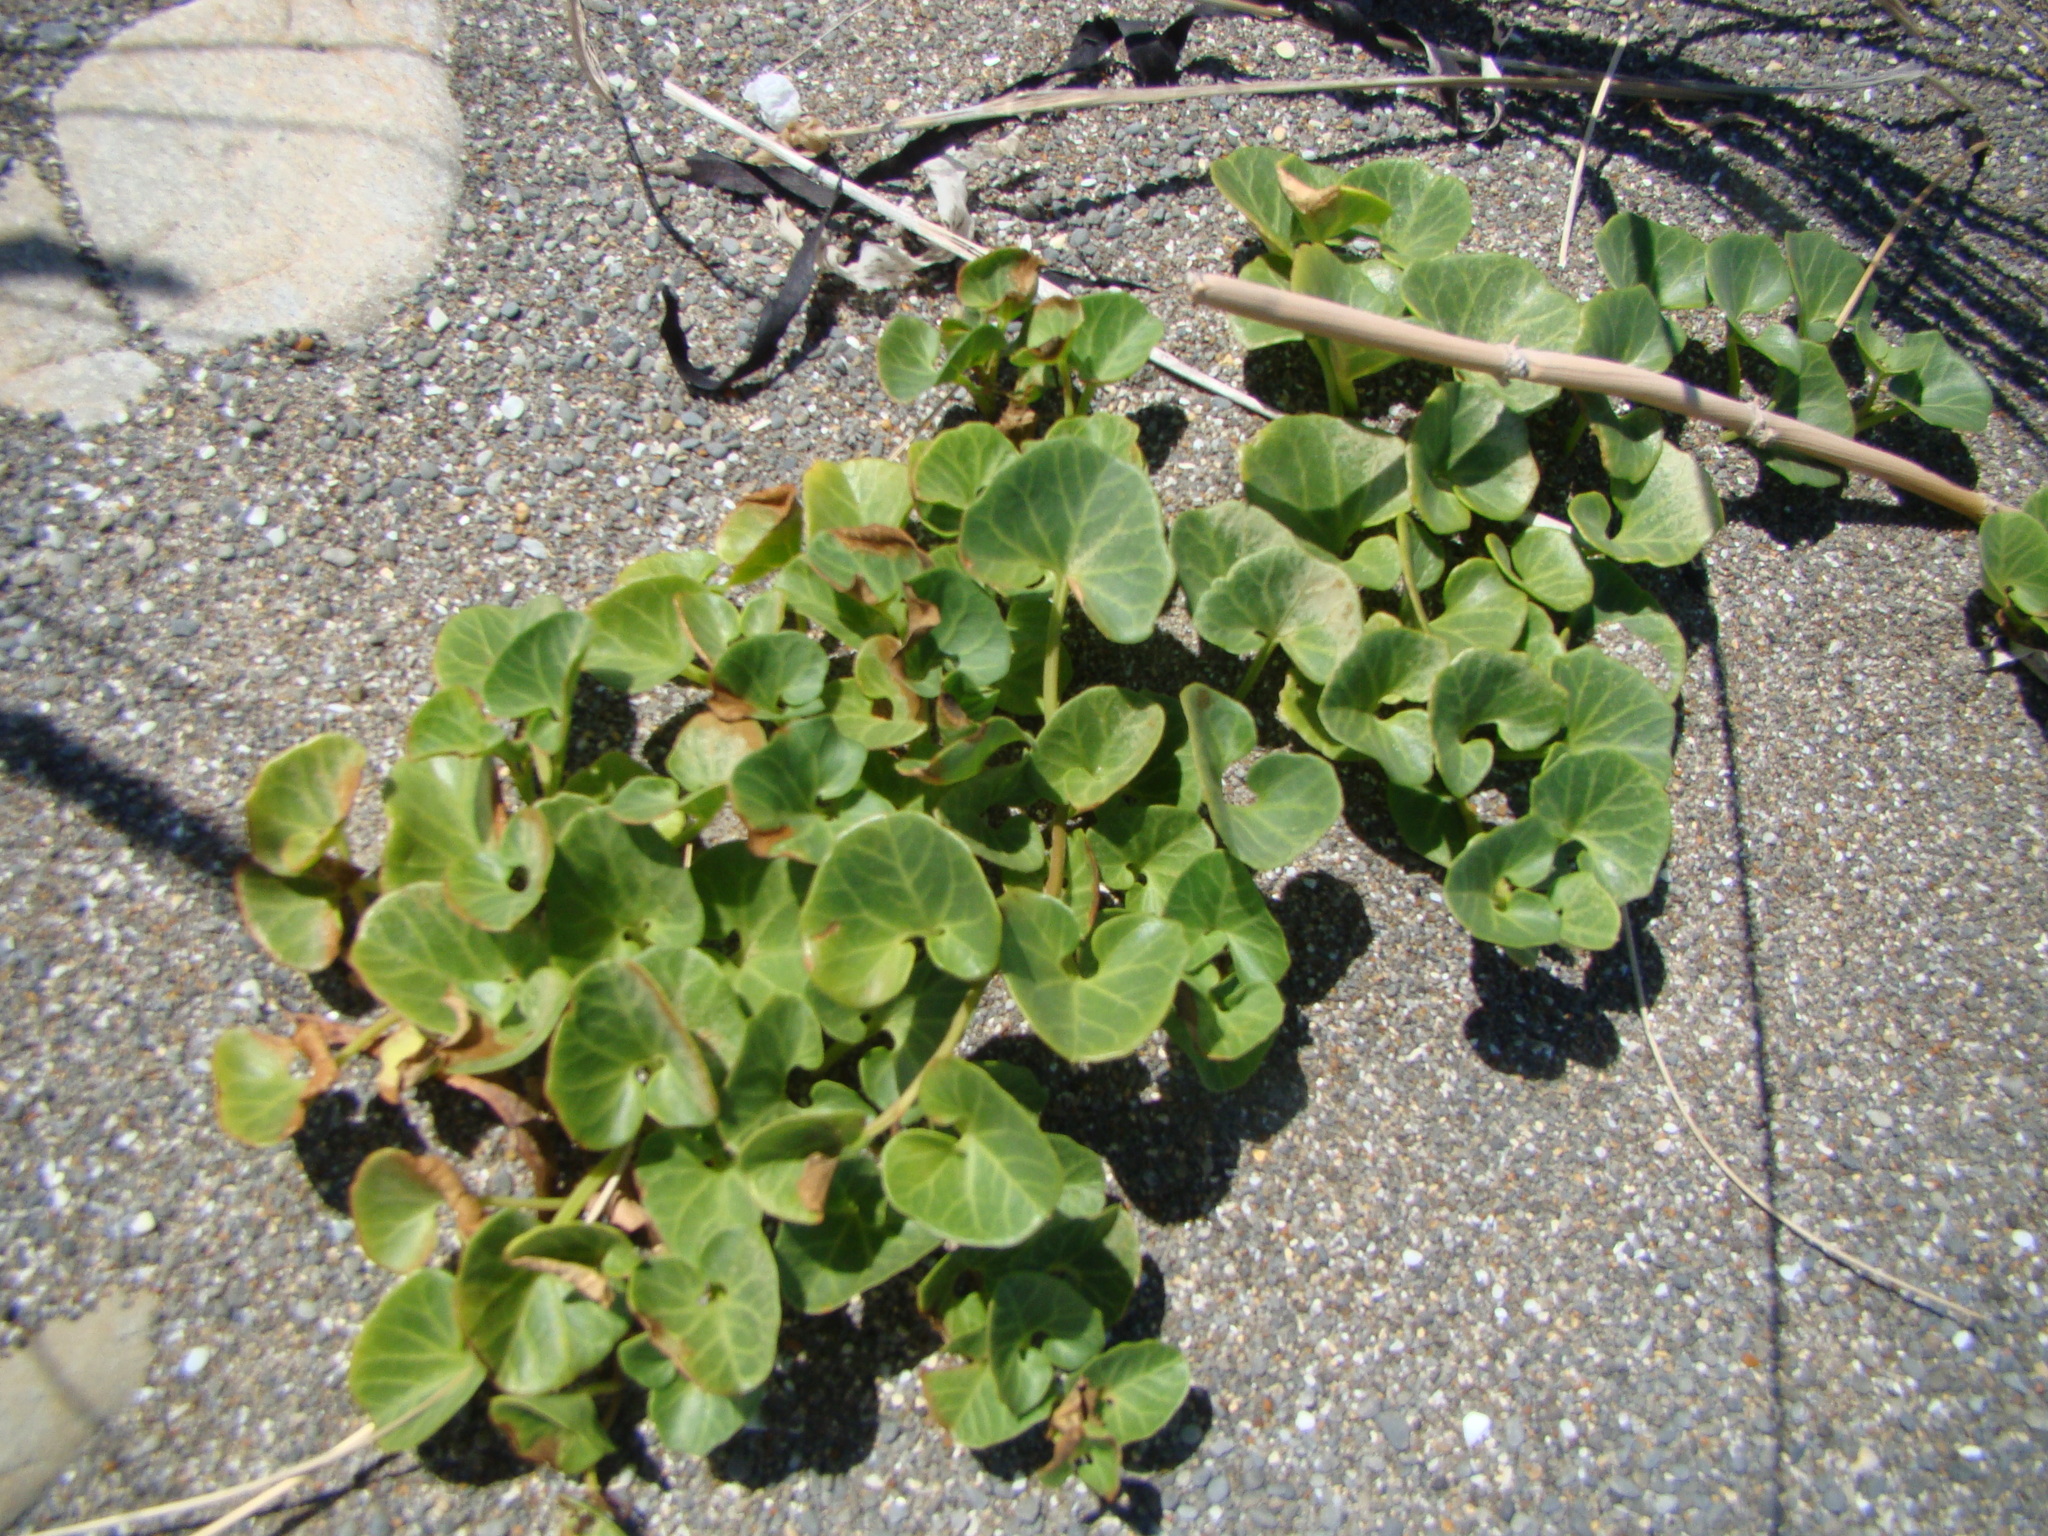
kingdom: Plantae
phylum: Tracheophyta
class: Magnoliopsida
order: Solanales
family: Convolvulaceae
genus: Calystegia
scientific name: Calystegia soldanella
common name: Sea bindweed
